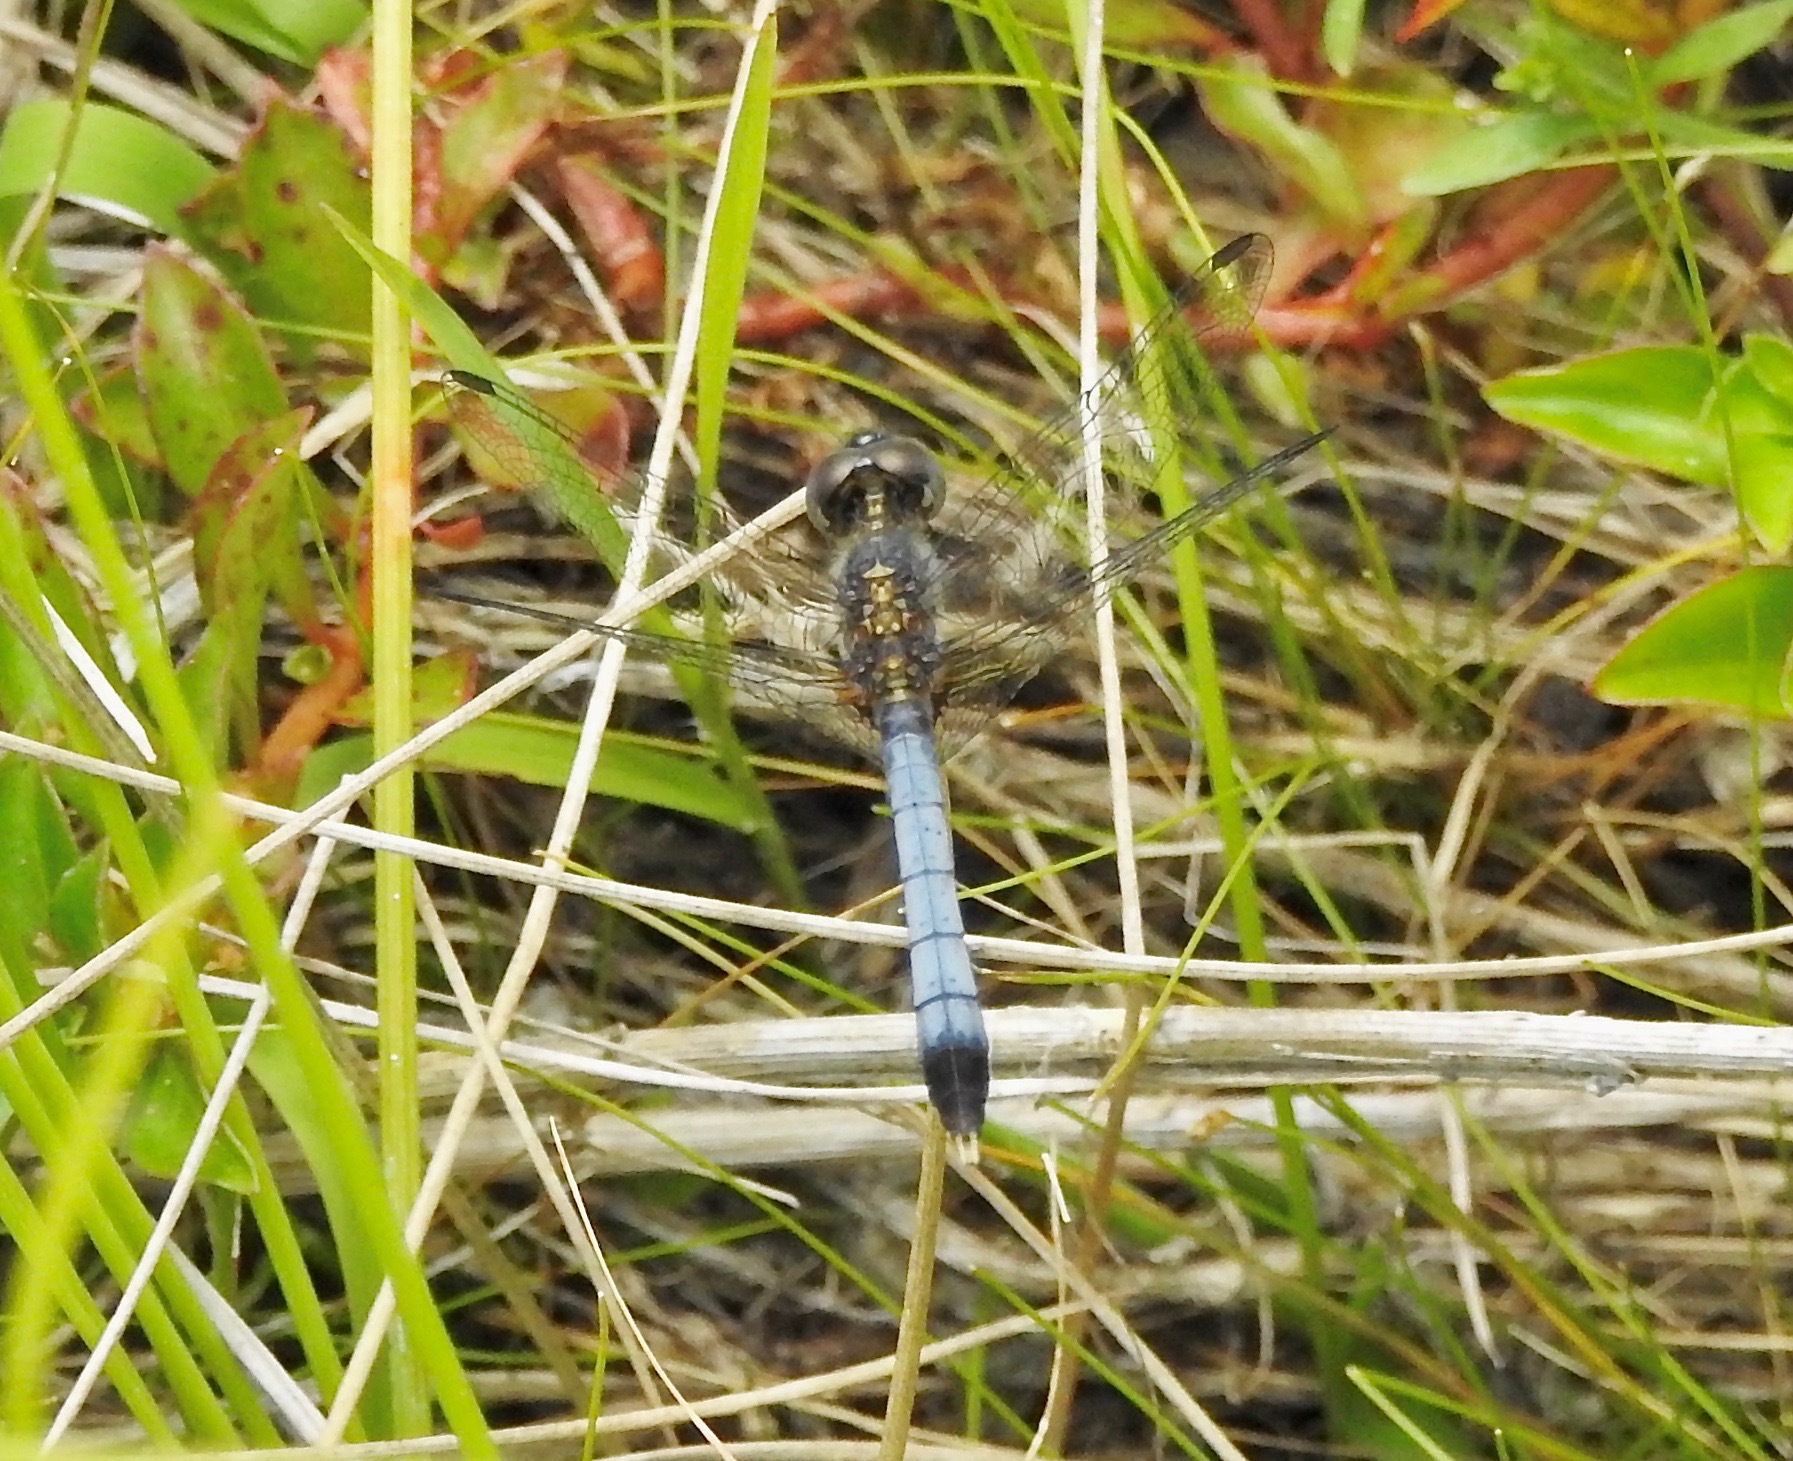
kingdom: Animalia
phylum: Arthropoda
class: Insecta
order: Odonata
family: Libellulidae
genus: Erythrodiplax
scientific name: Erythrodiplax minuscula
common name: Little blue dragonlet
